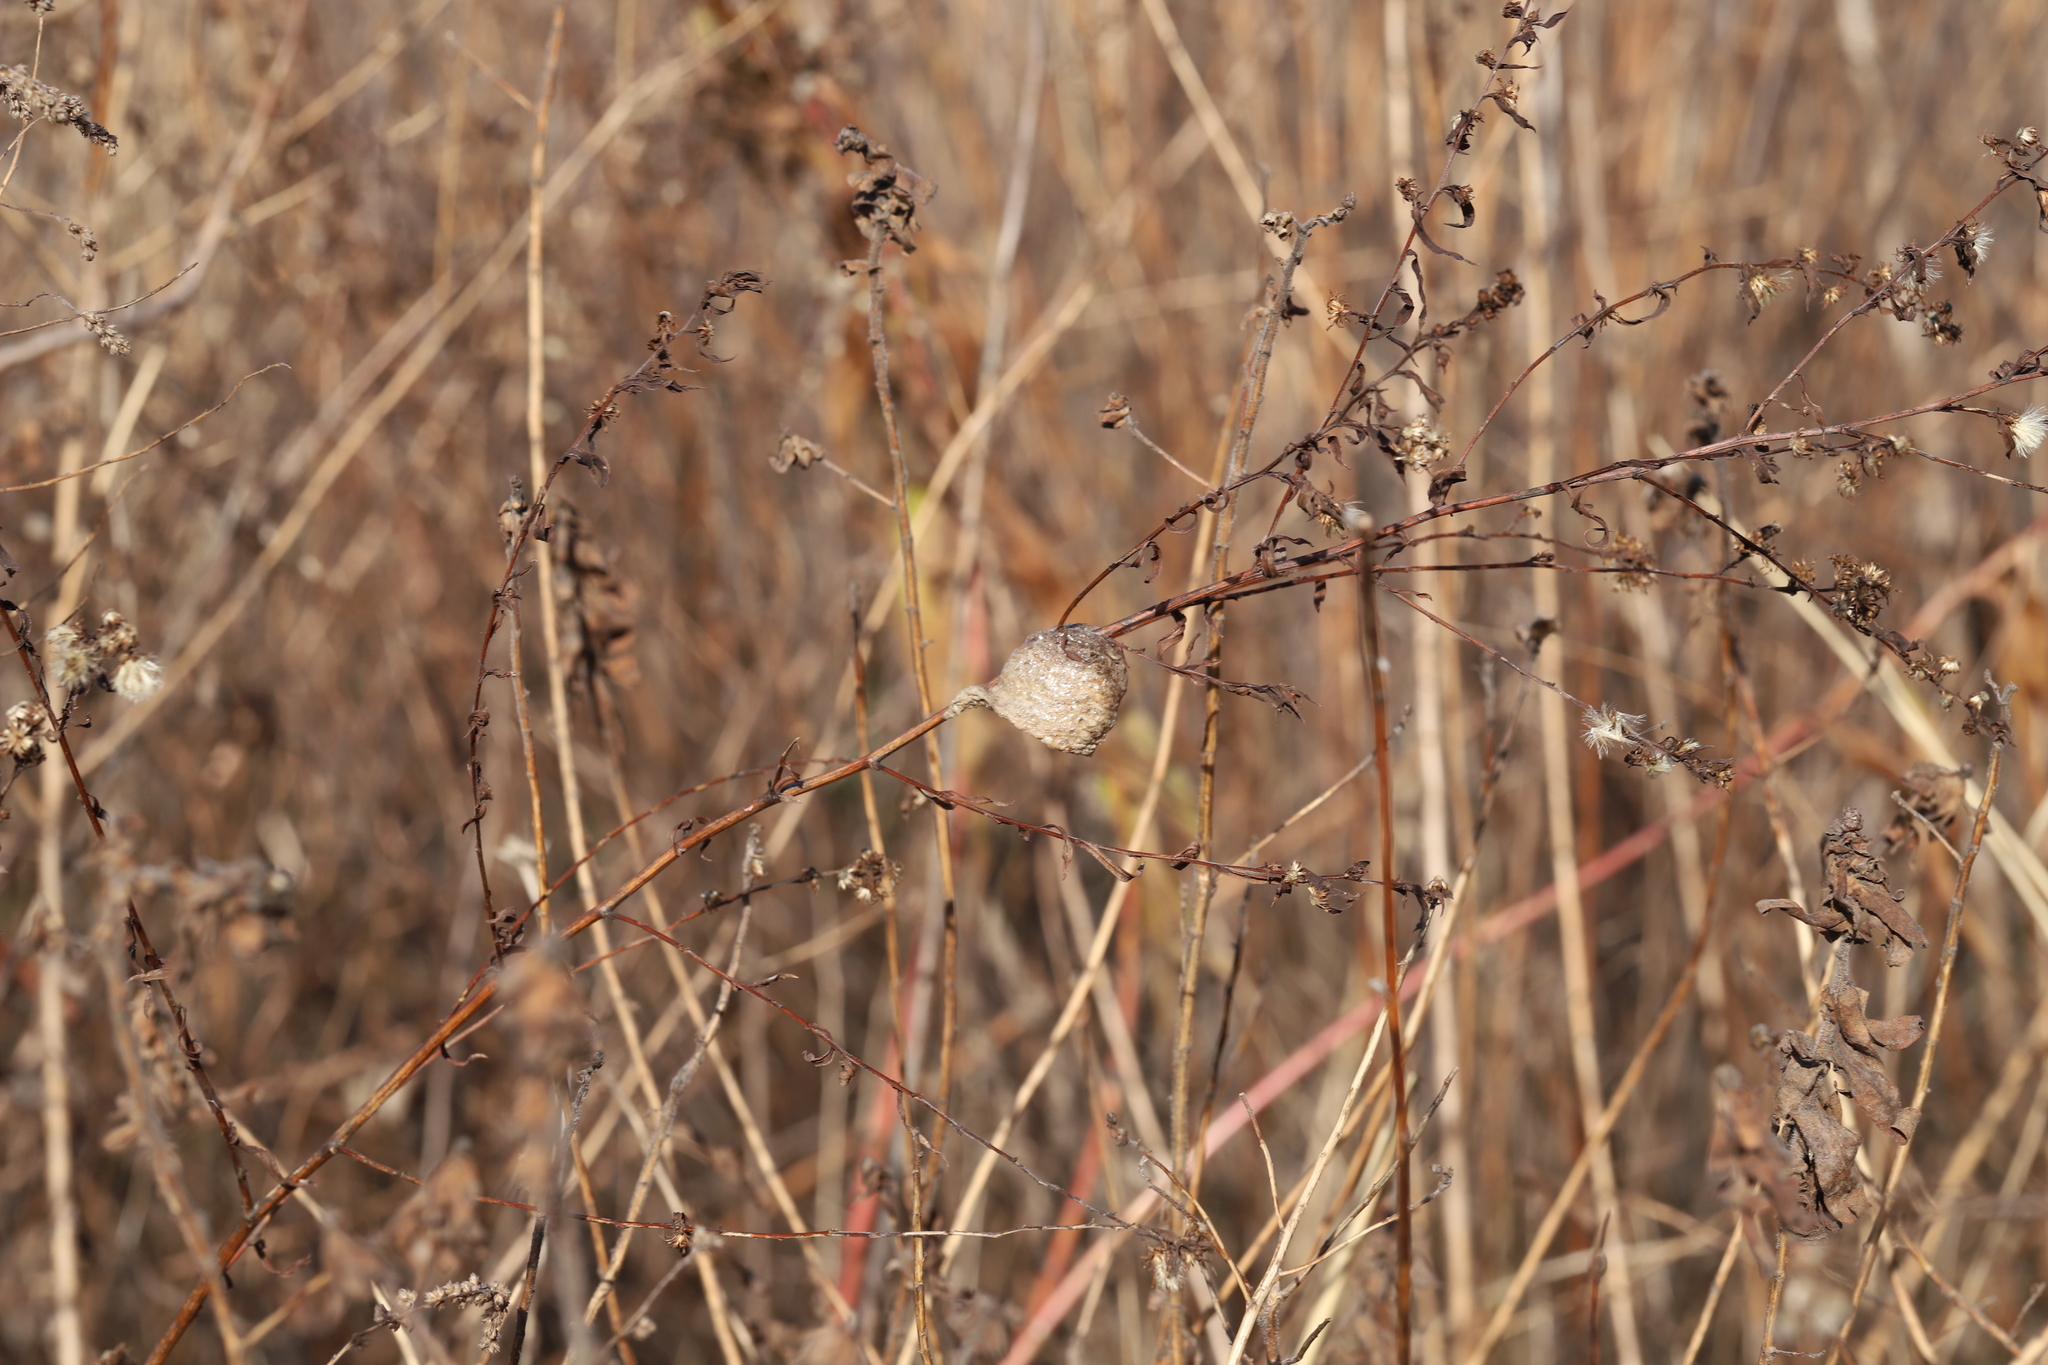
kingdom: Animalia
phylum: Arthropoda
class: Insecta
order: Mantodea
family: Mantidae
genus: Tenodera
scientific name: Tenodera sinensis
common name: Chinese mantis
